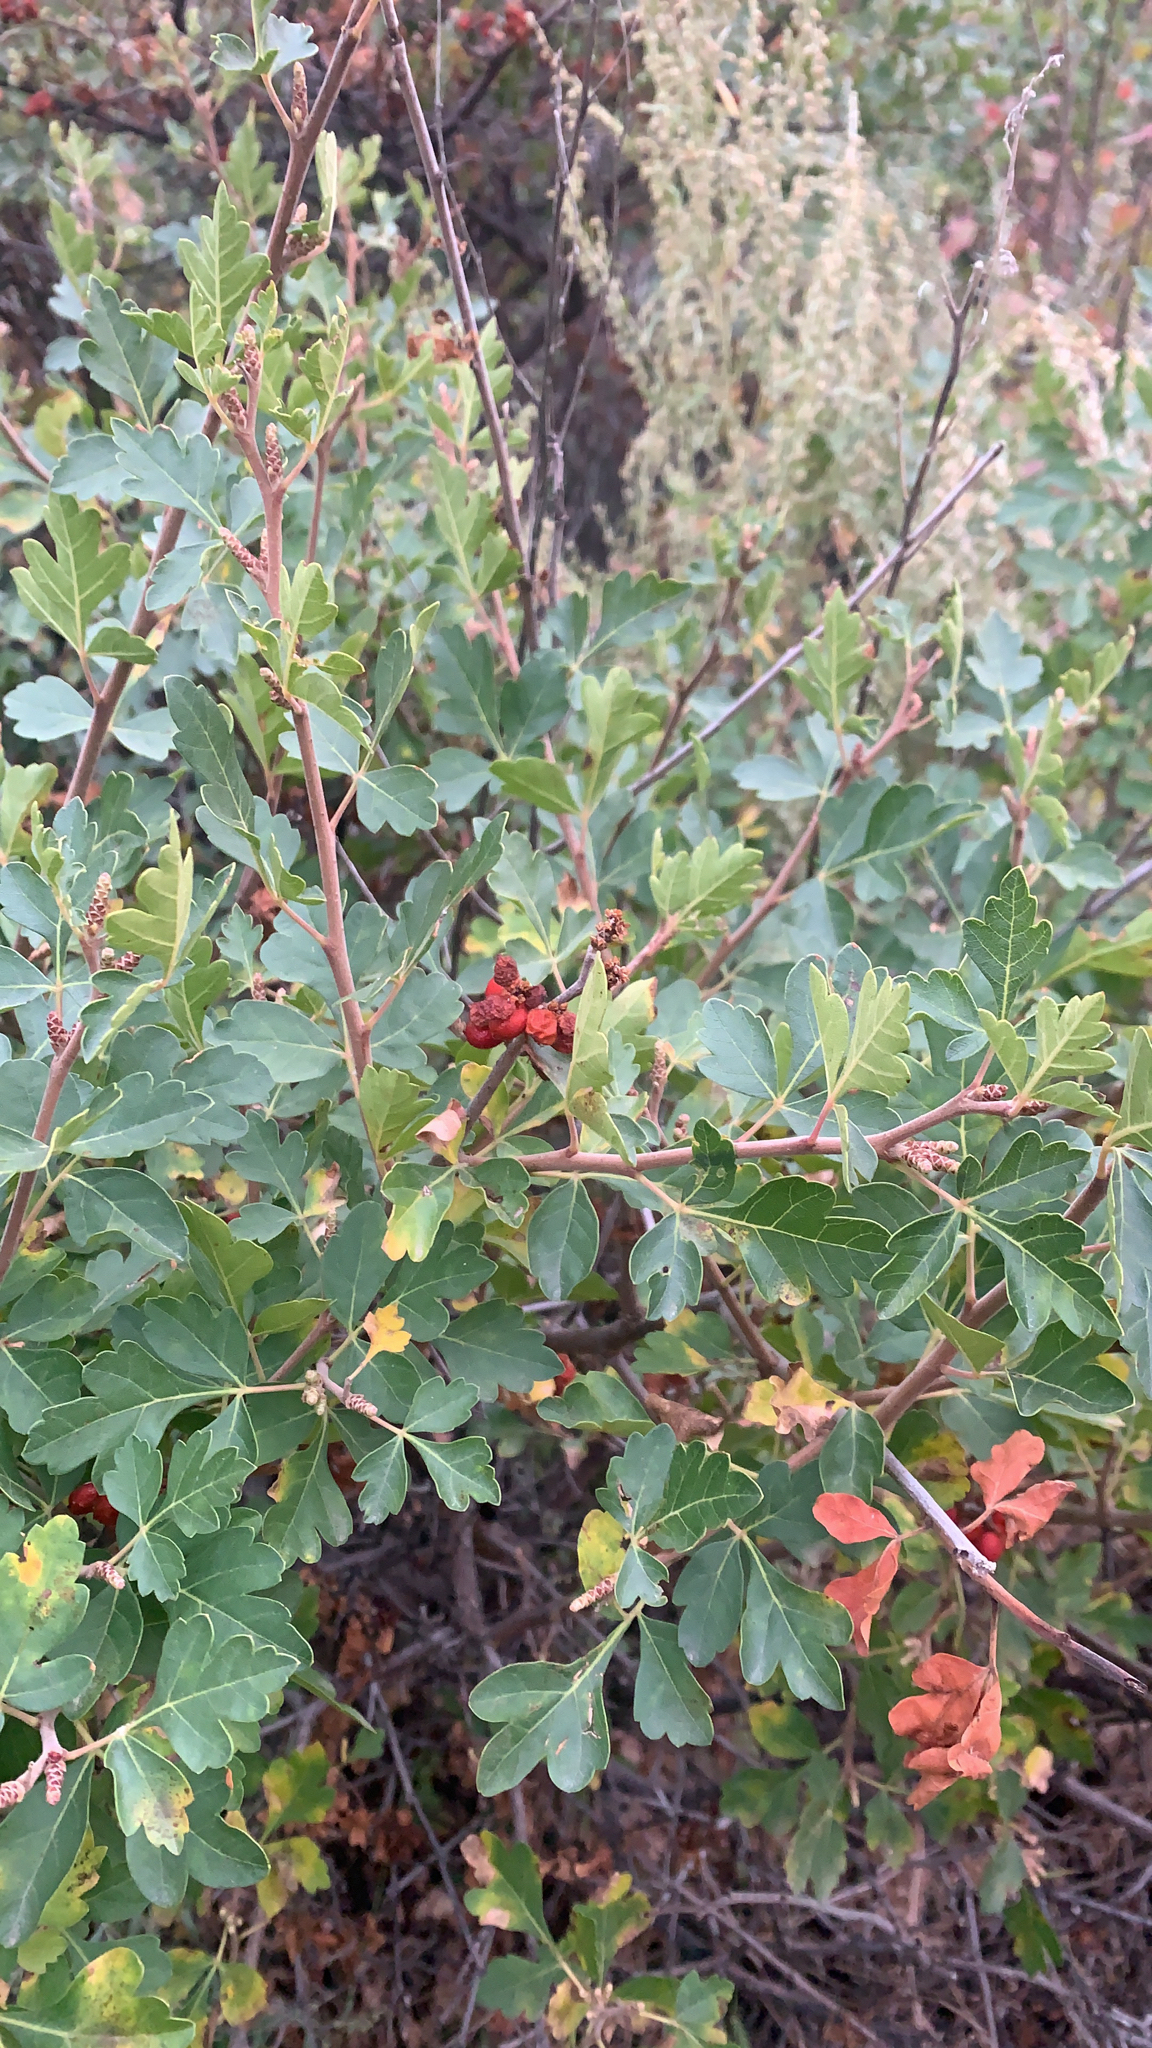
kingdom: Plantae
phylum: Tracheophyta
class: Magnoliopsida
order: Sapindales
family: Anacardiaceae
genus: Rhus
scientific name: Rhus aromatica
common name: Aromatic sumac
